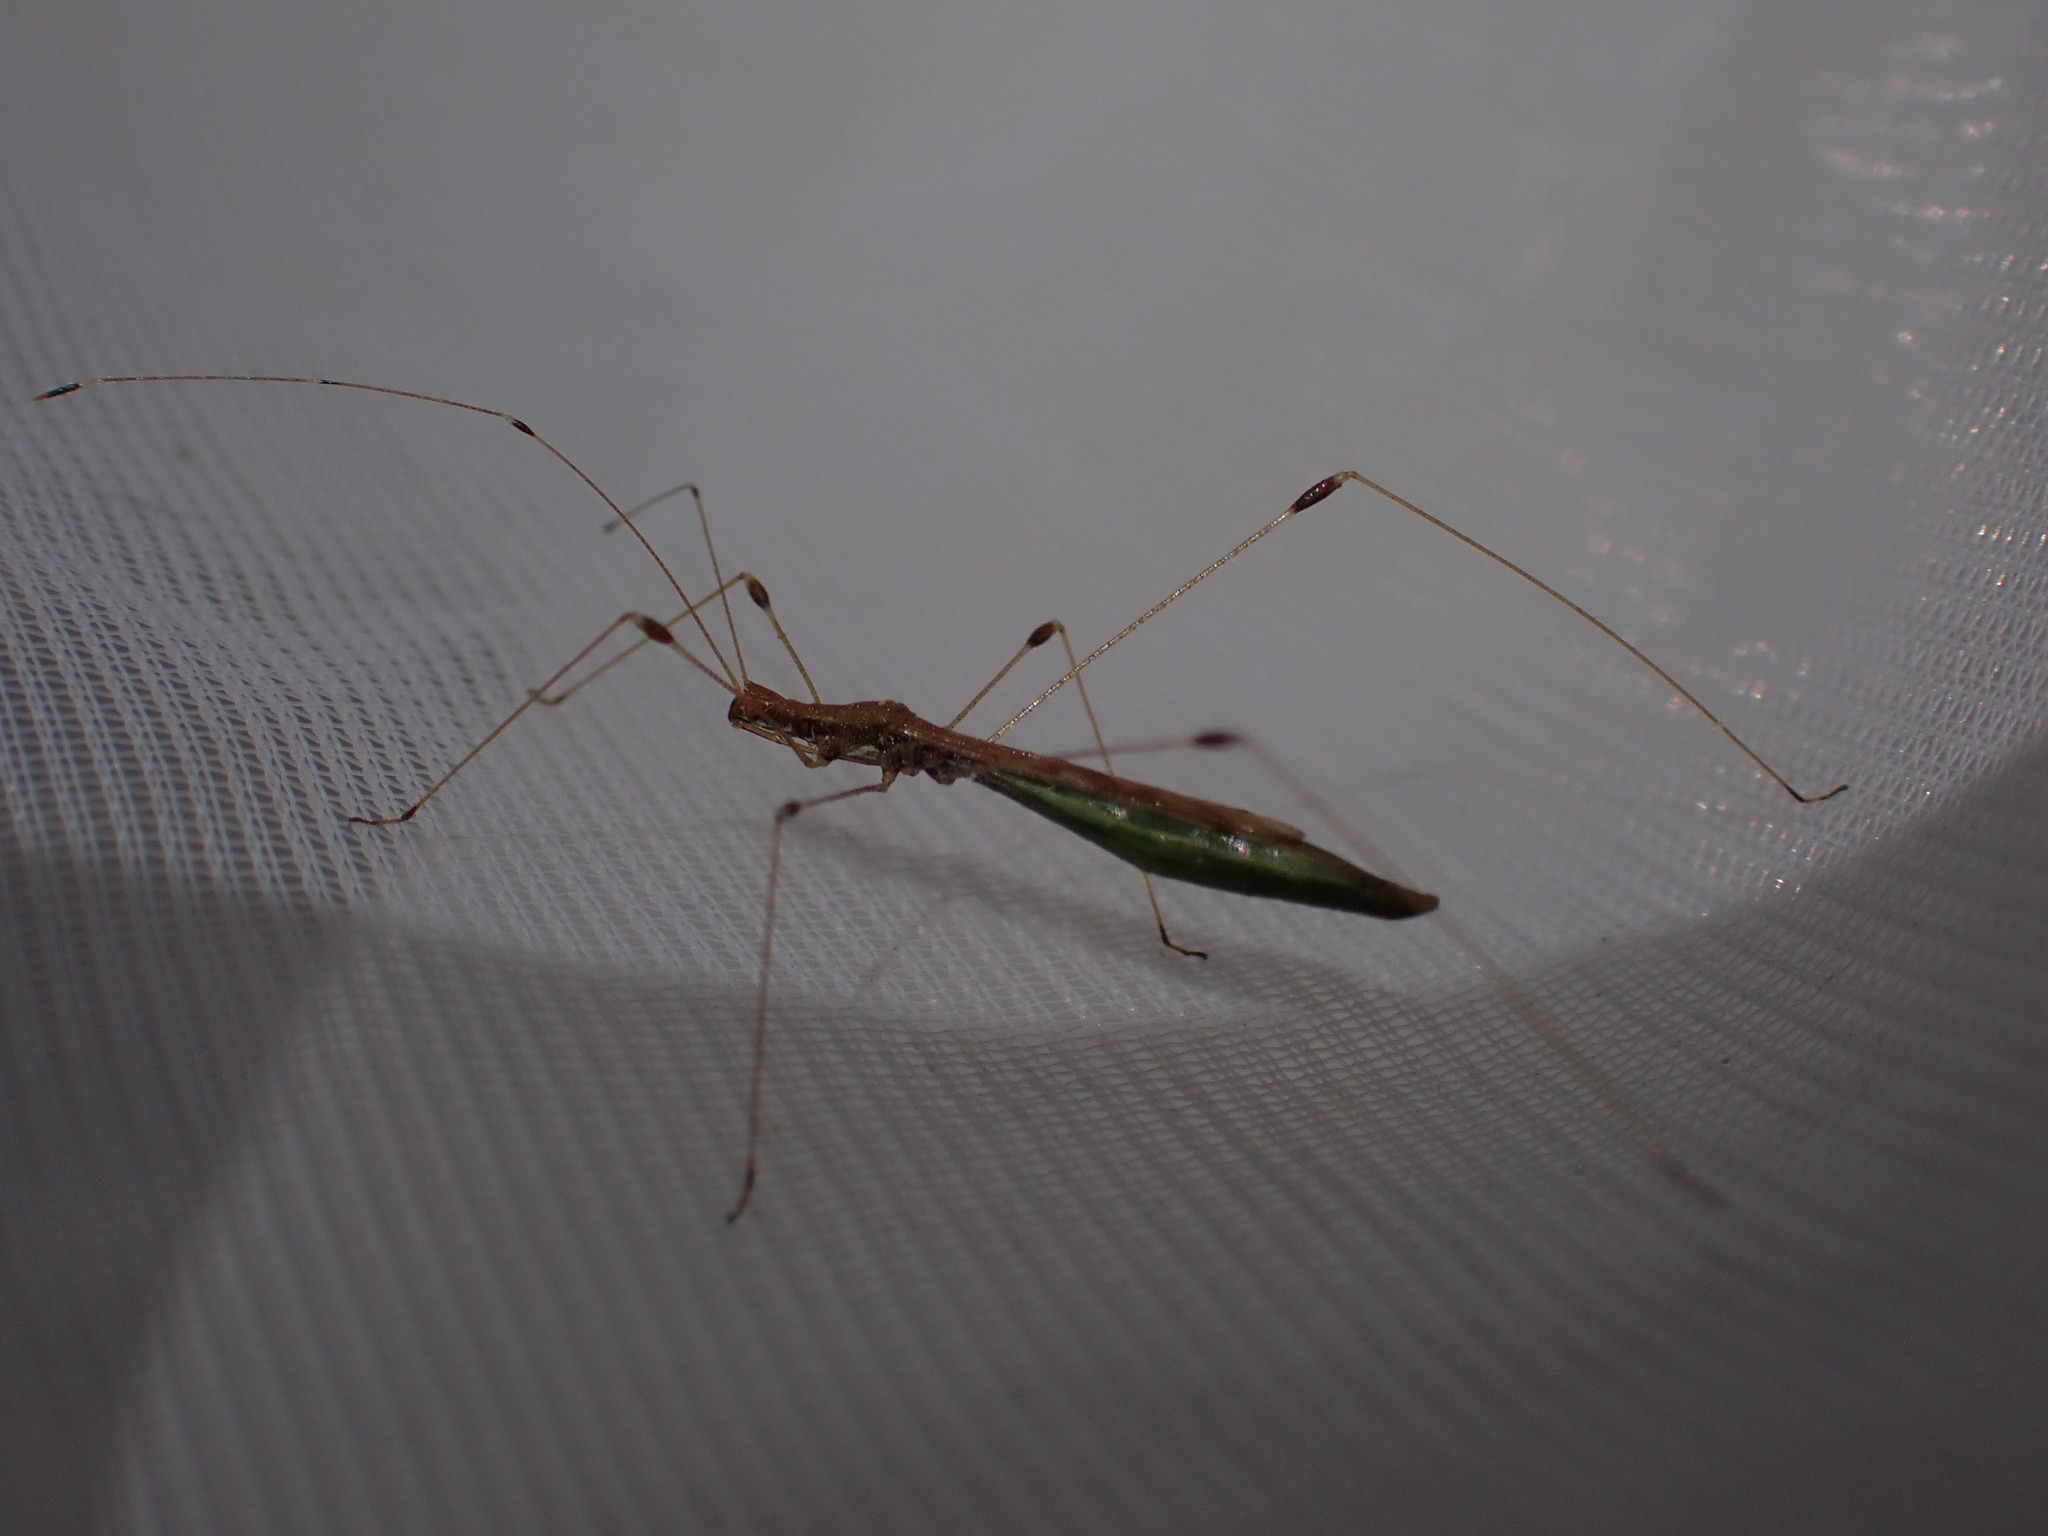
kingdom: Animalia
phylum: Arthropoda
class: Insecta
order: Hemiptera
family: Berytidae
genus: Apoplymus
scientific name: Apoplymus pectoralis
